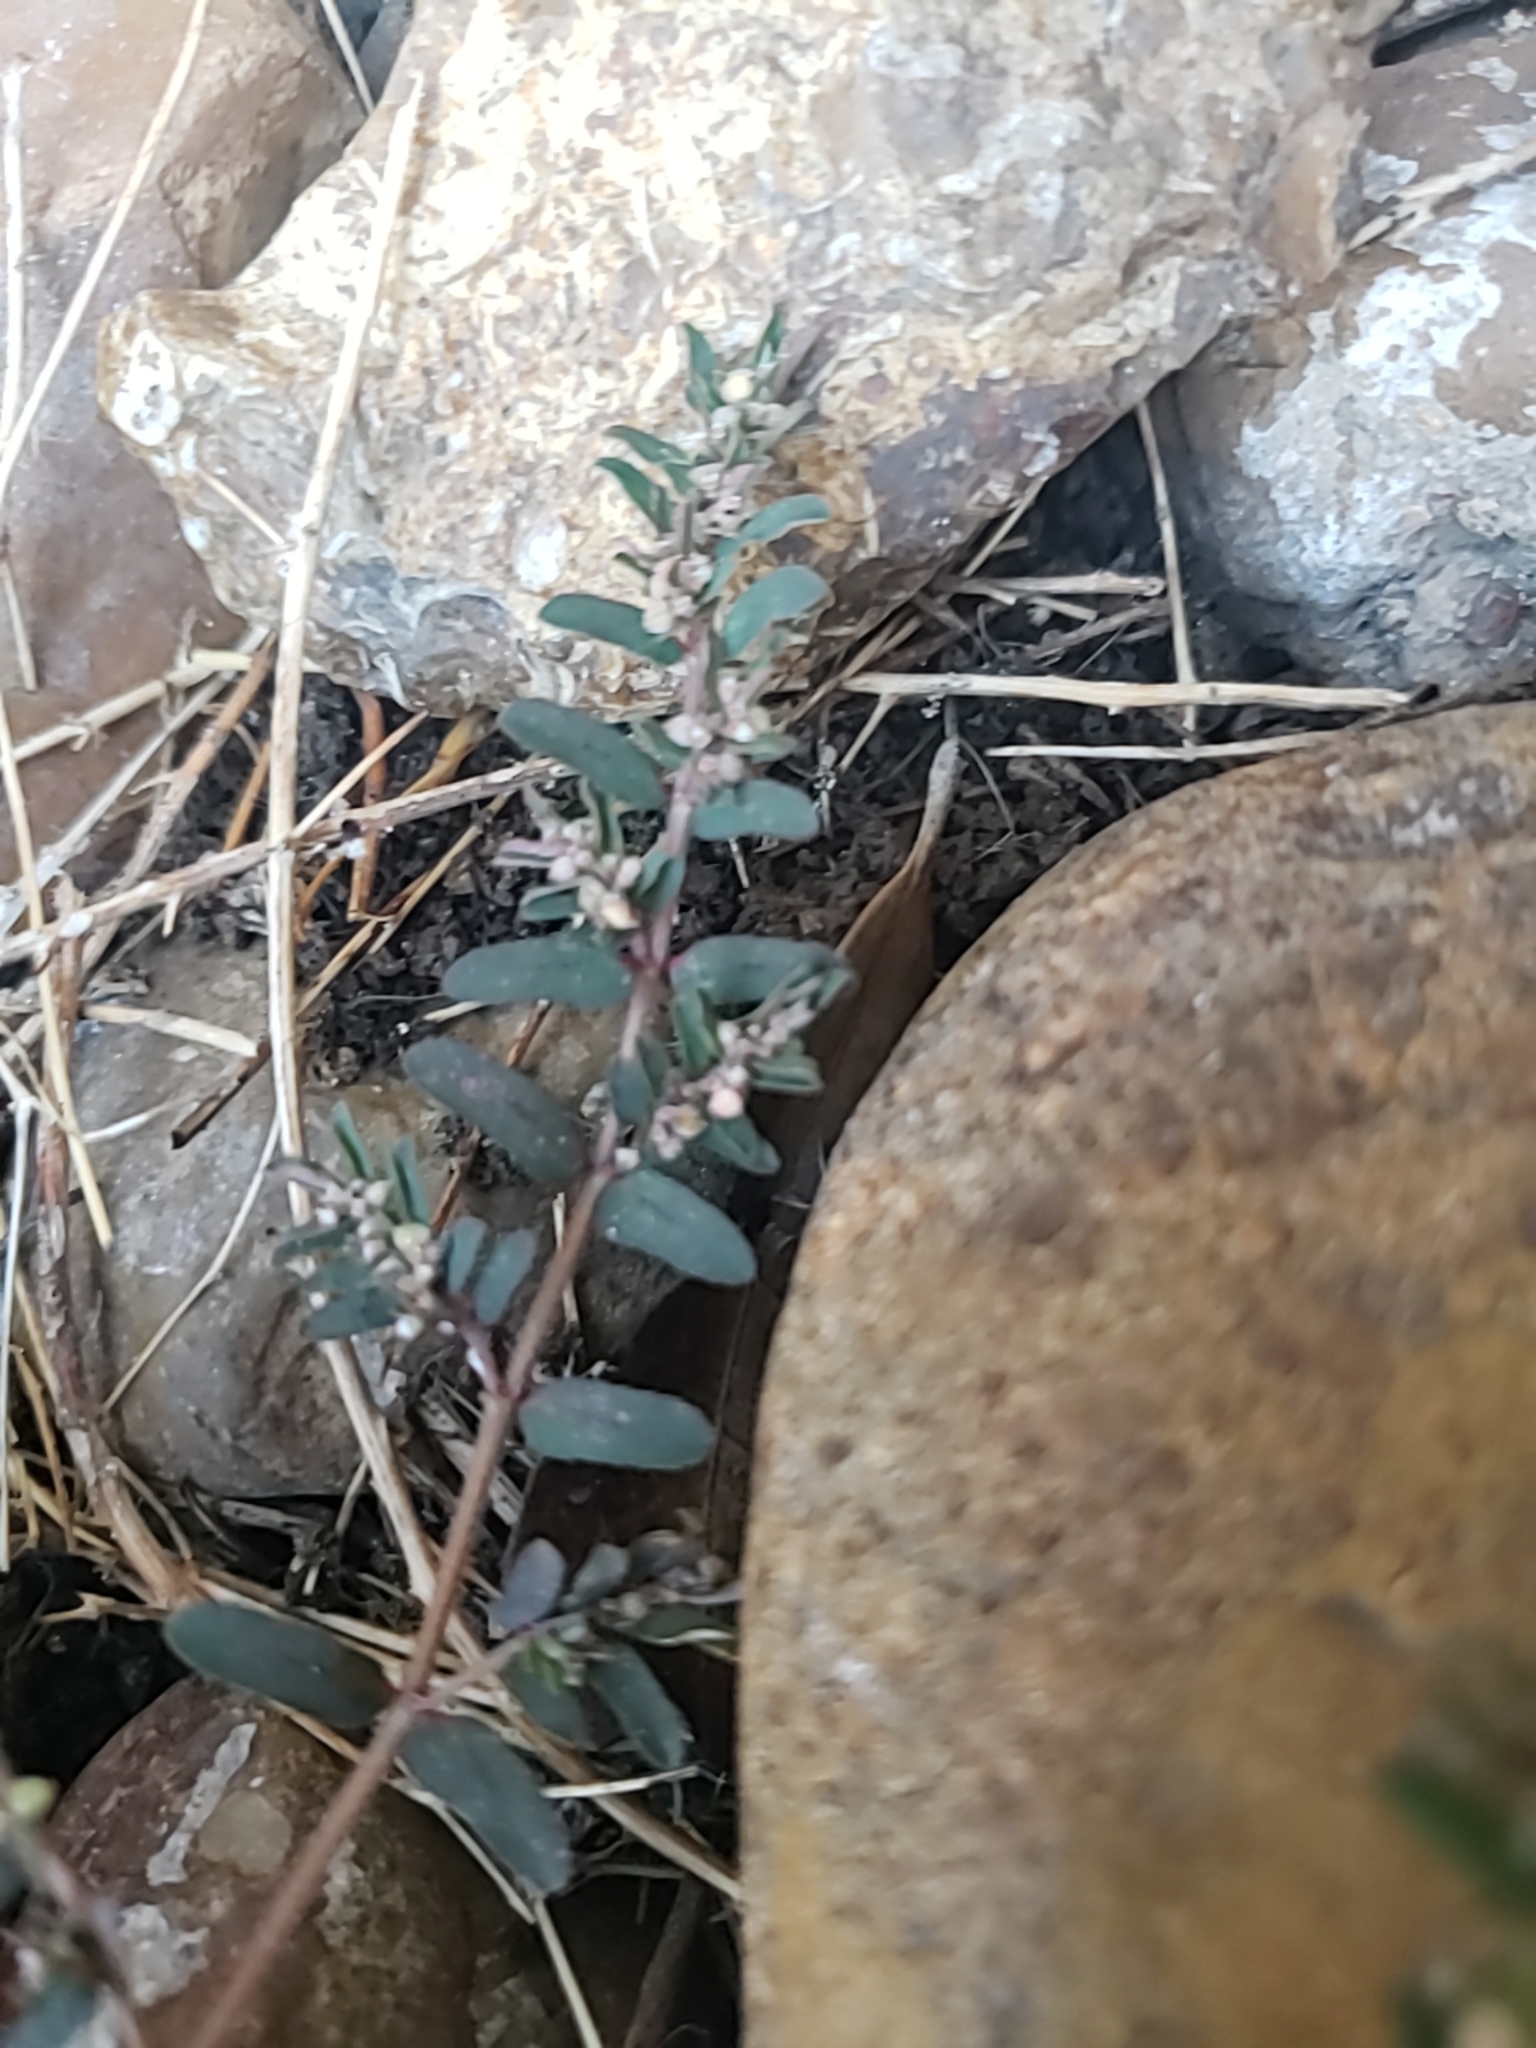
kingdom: Plantae
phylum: Tracheophyta
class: Magnoliopsida
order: Malpighiales
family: Euphorbiaceae
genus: Euphorbia
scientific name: Euphorbia maculata
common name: Spotted spurge
